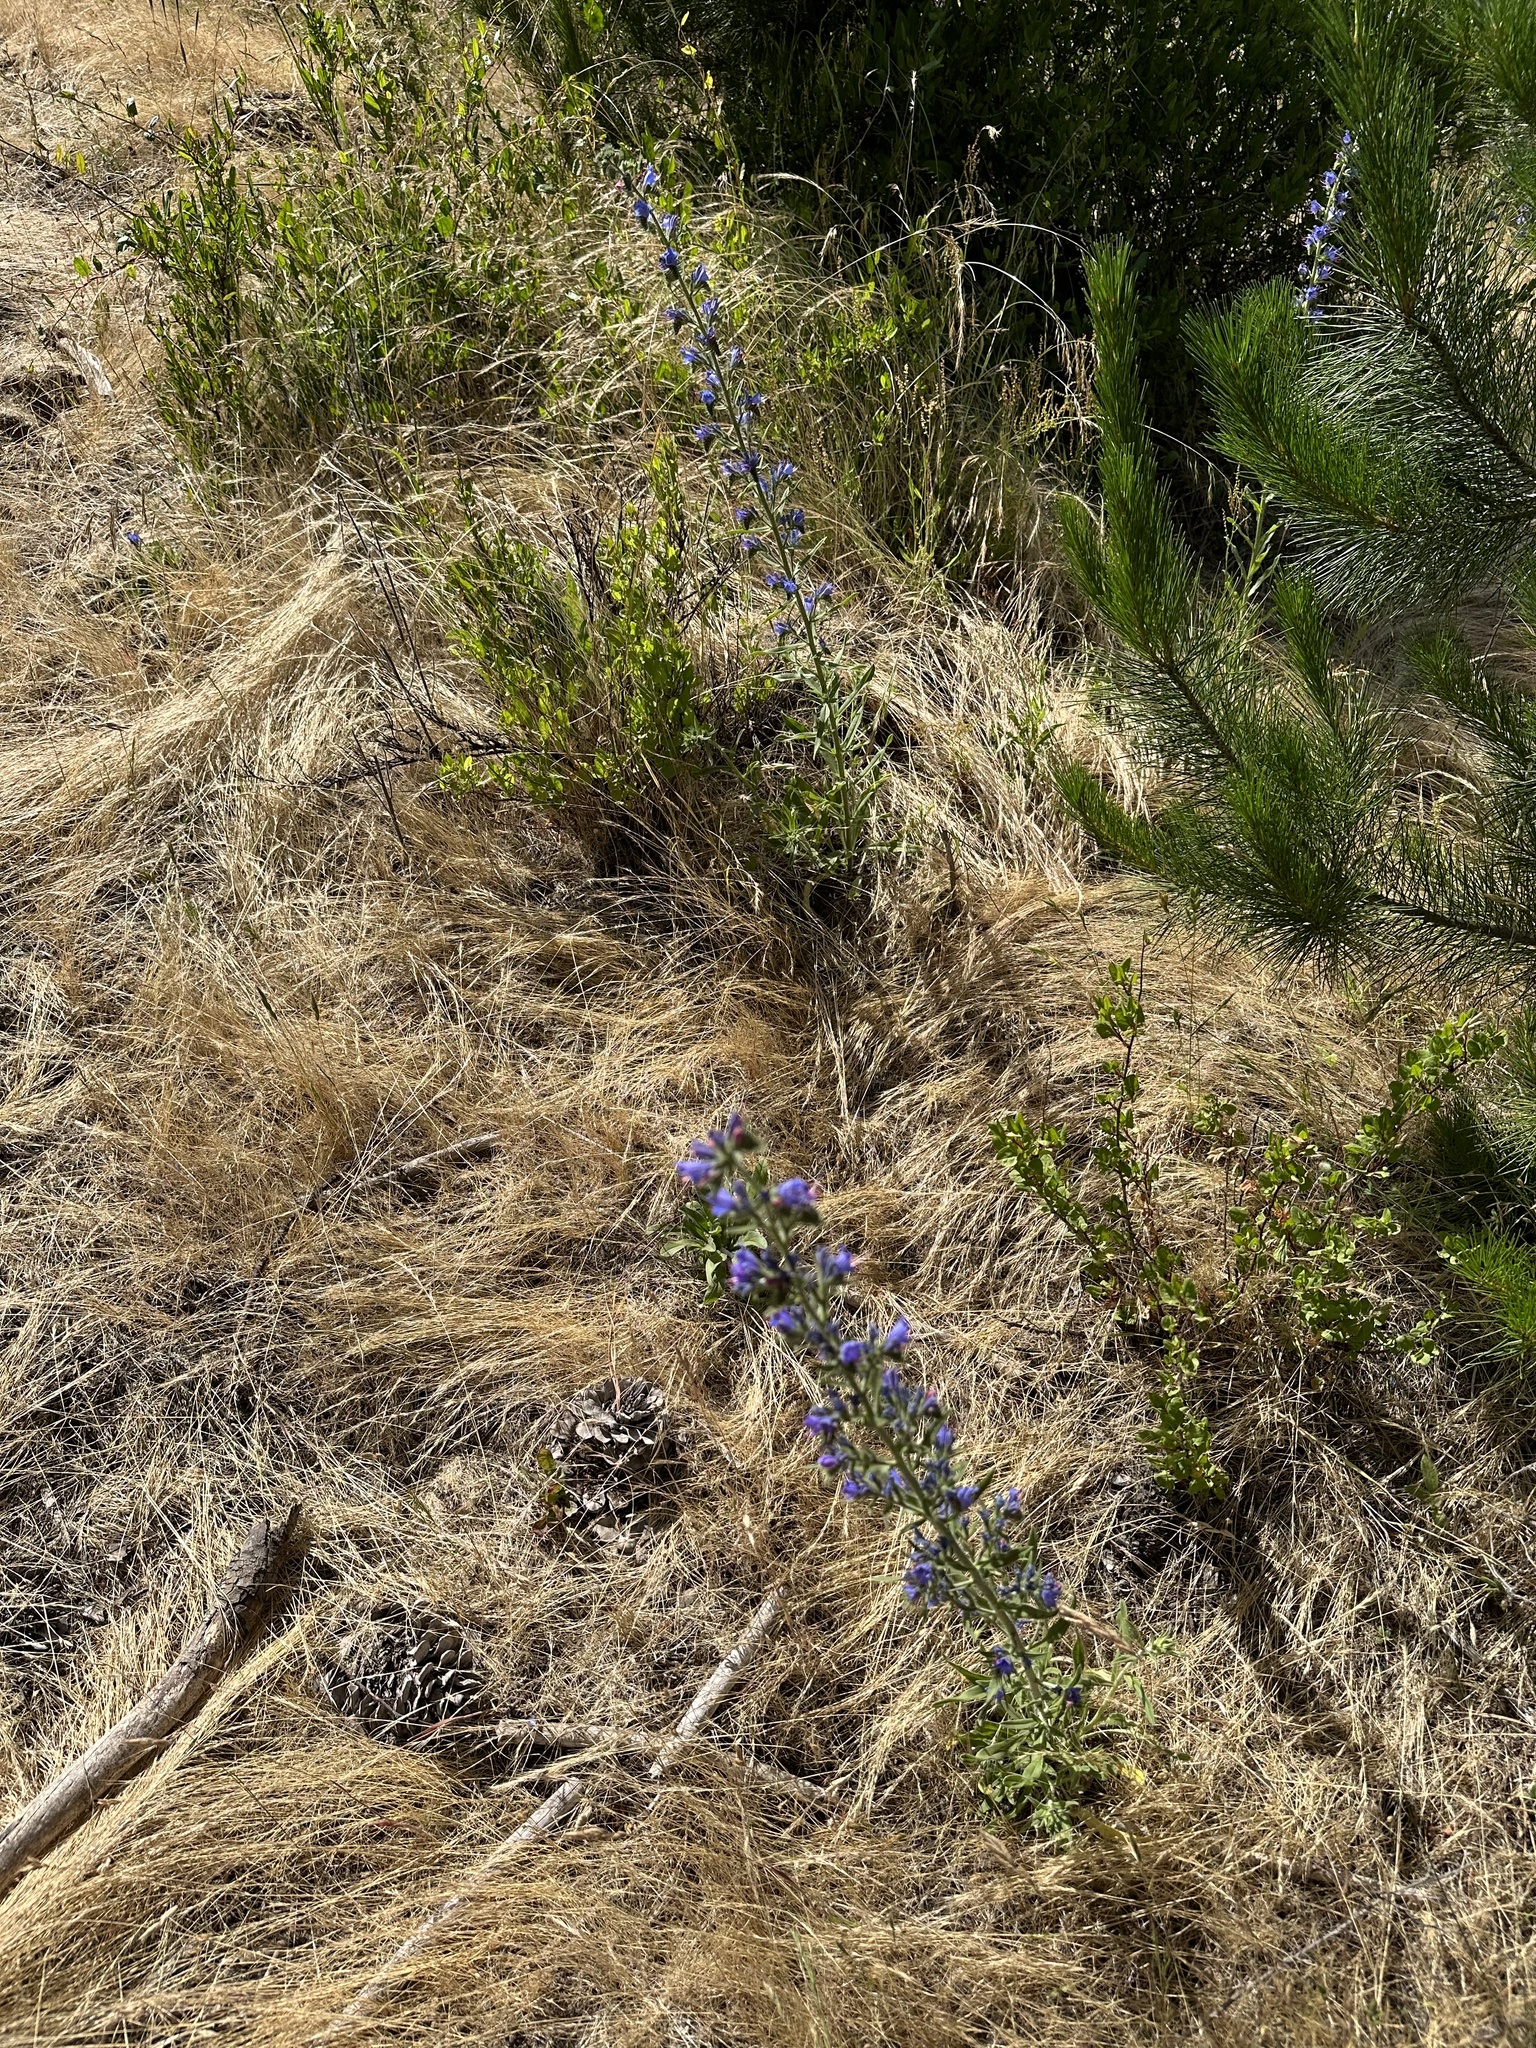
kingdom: Plantae
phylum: Tracheophyta
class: Magnoliopsida
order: Boraginales
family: Boraginaceae
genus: Echium
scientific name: Echium vulgare
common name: Common viper's bugloss
